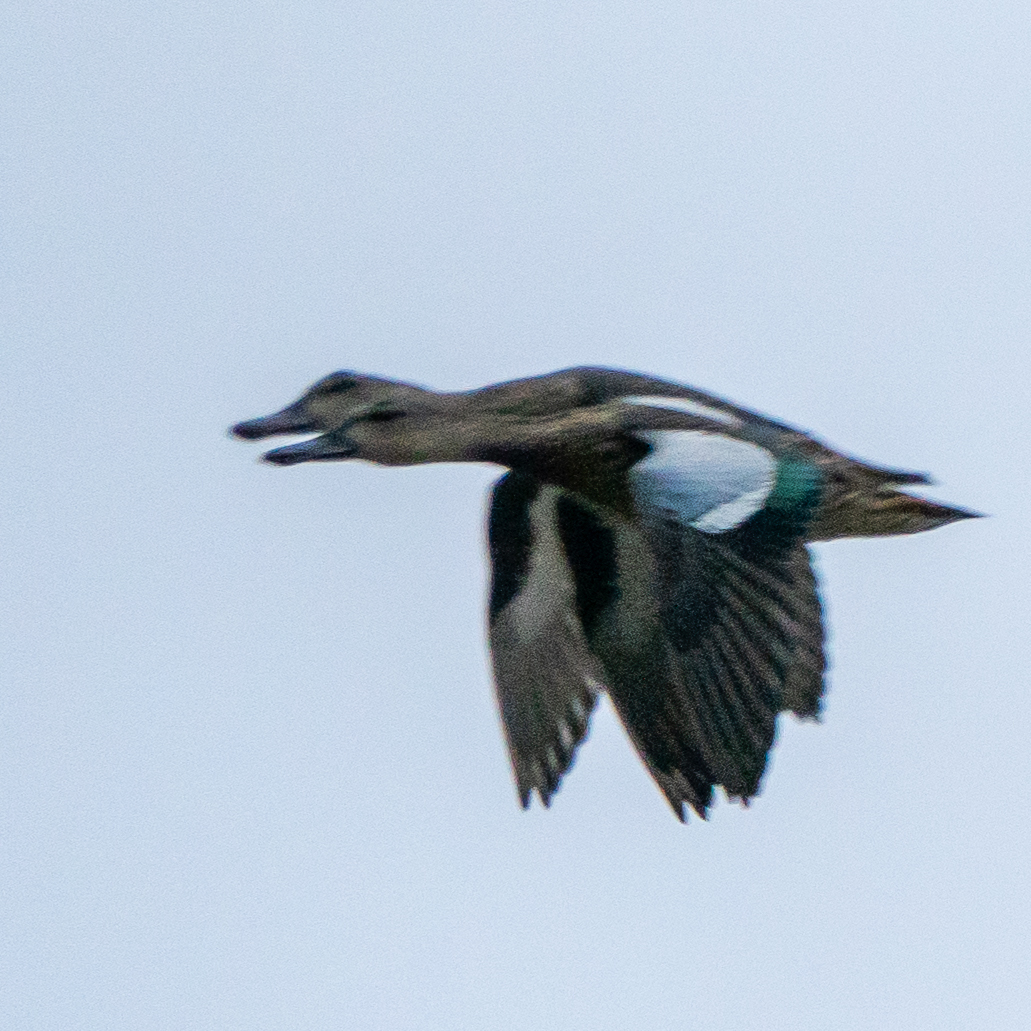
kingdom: Animalia
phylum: Chordata
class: Aves
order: Anseriformes
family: Anatidae
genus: Spatula
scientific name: Spatula discors
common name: Blue-winged teal
